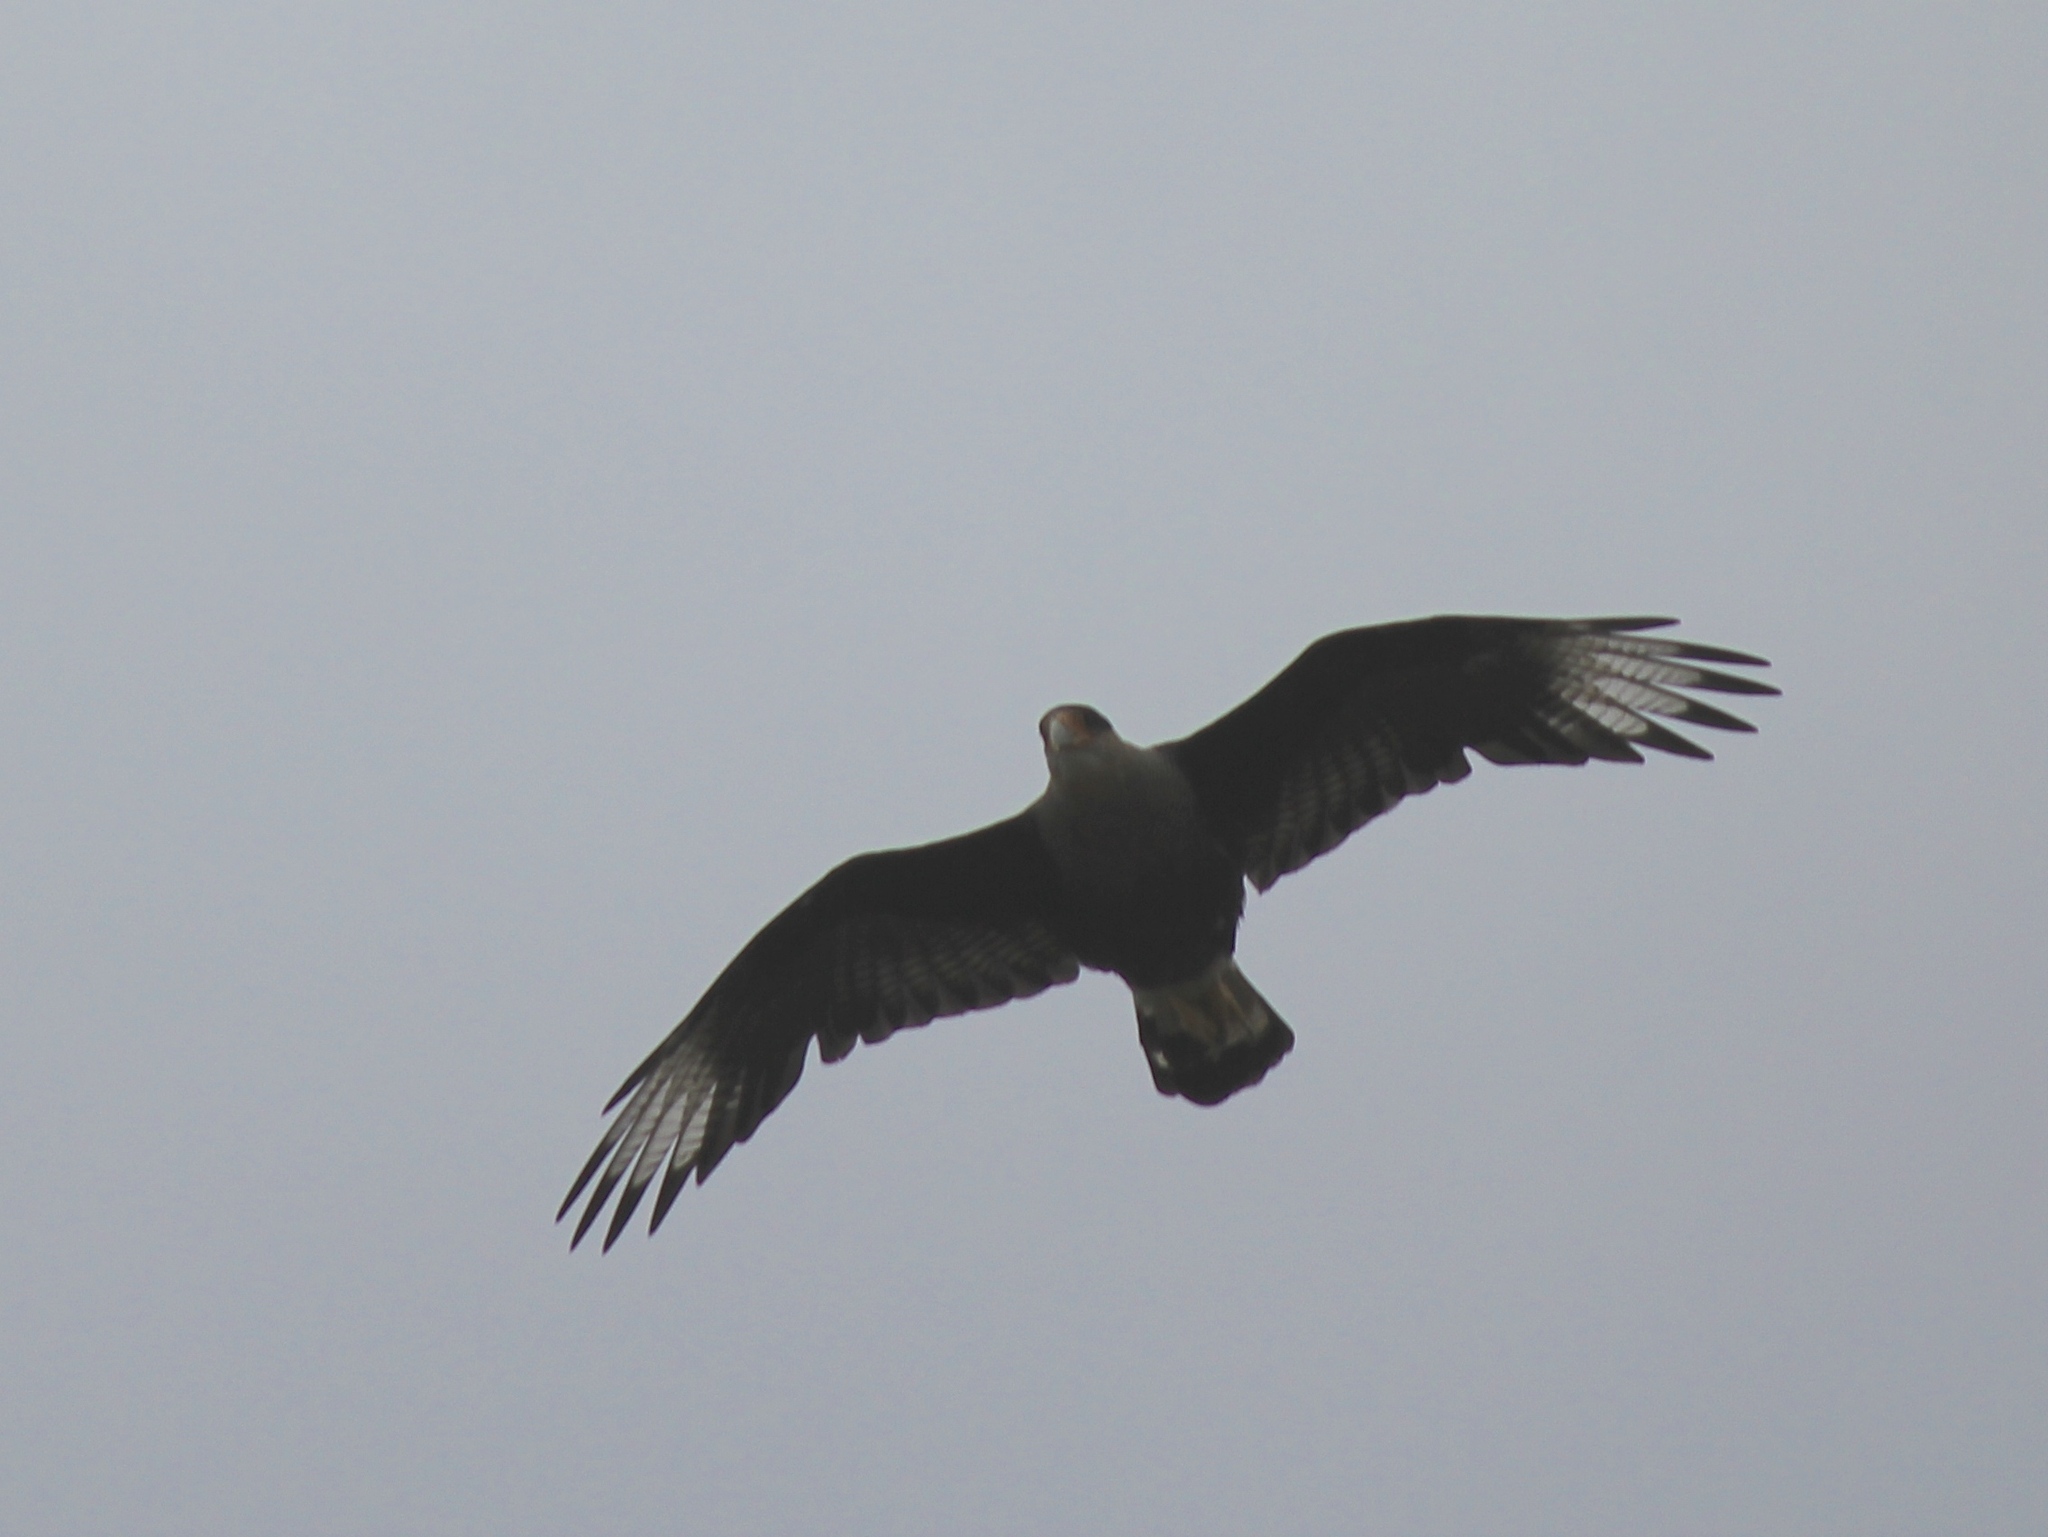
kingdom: Animalia
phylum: Chordata
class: Aves
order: Falconiformes
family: Falconidae
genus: Caracara
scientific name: Caracara plancus
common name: Southern caracara
